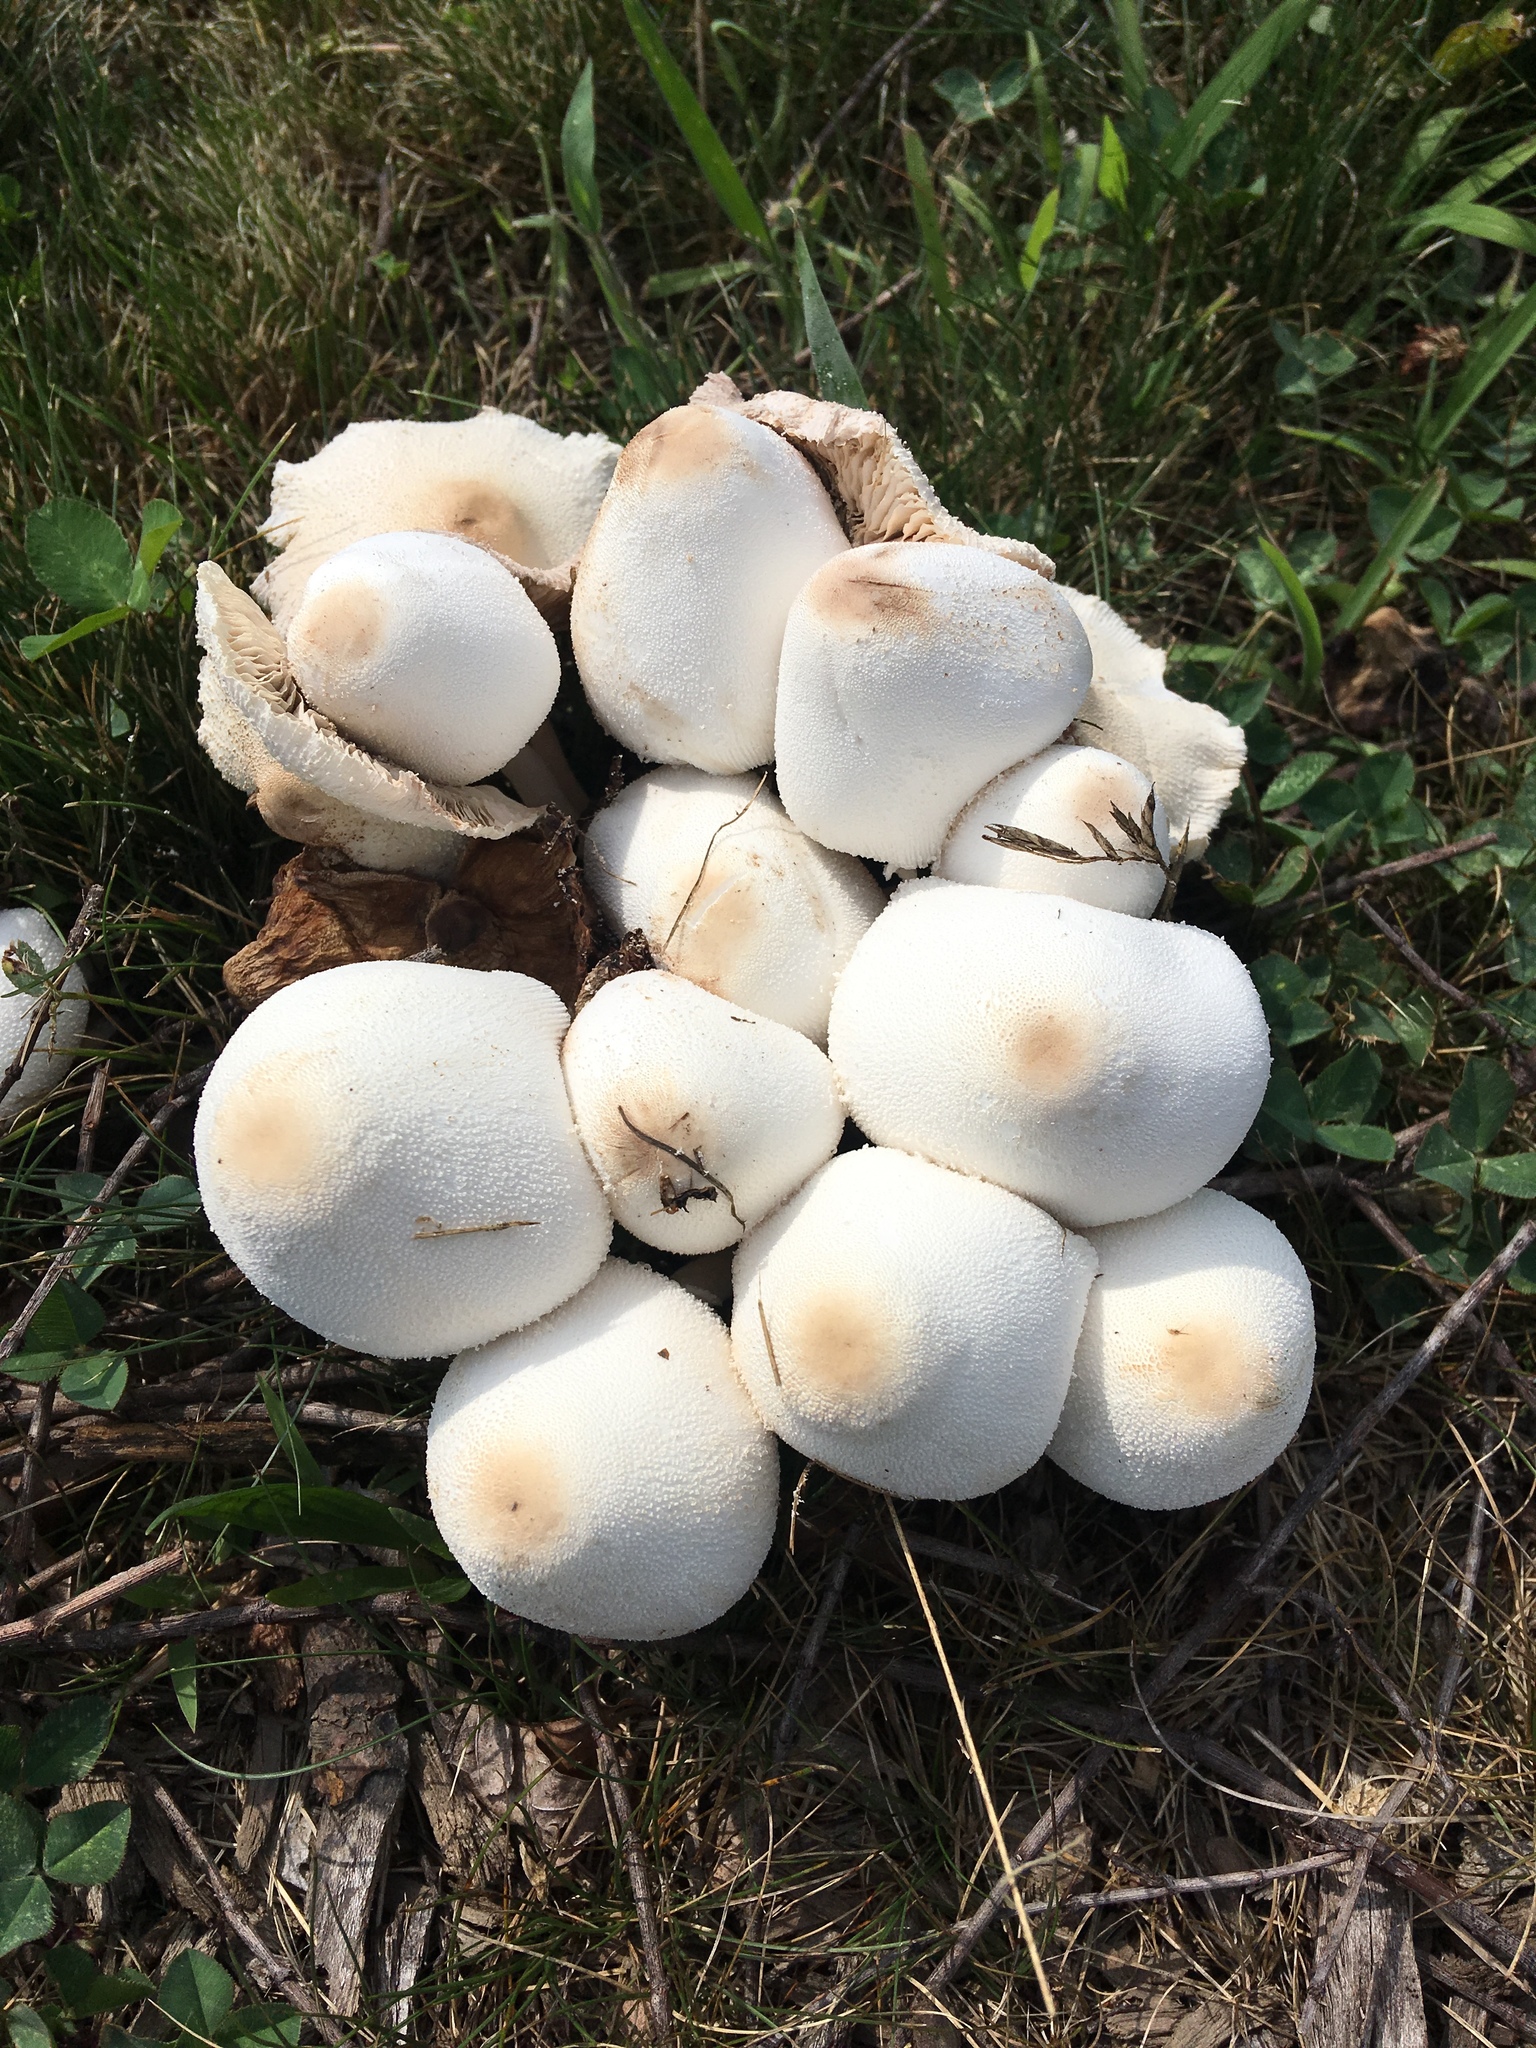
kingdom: Fungi
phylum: Basidiomycota
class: Agaricomycetes
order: Agaricales
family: Agaricaceae
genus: Leucocoprinus
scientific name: Leucocoprinus cepistipes
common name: Onion-stalk parasol
